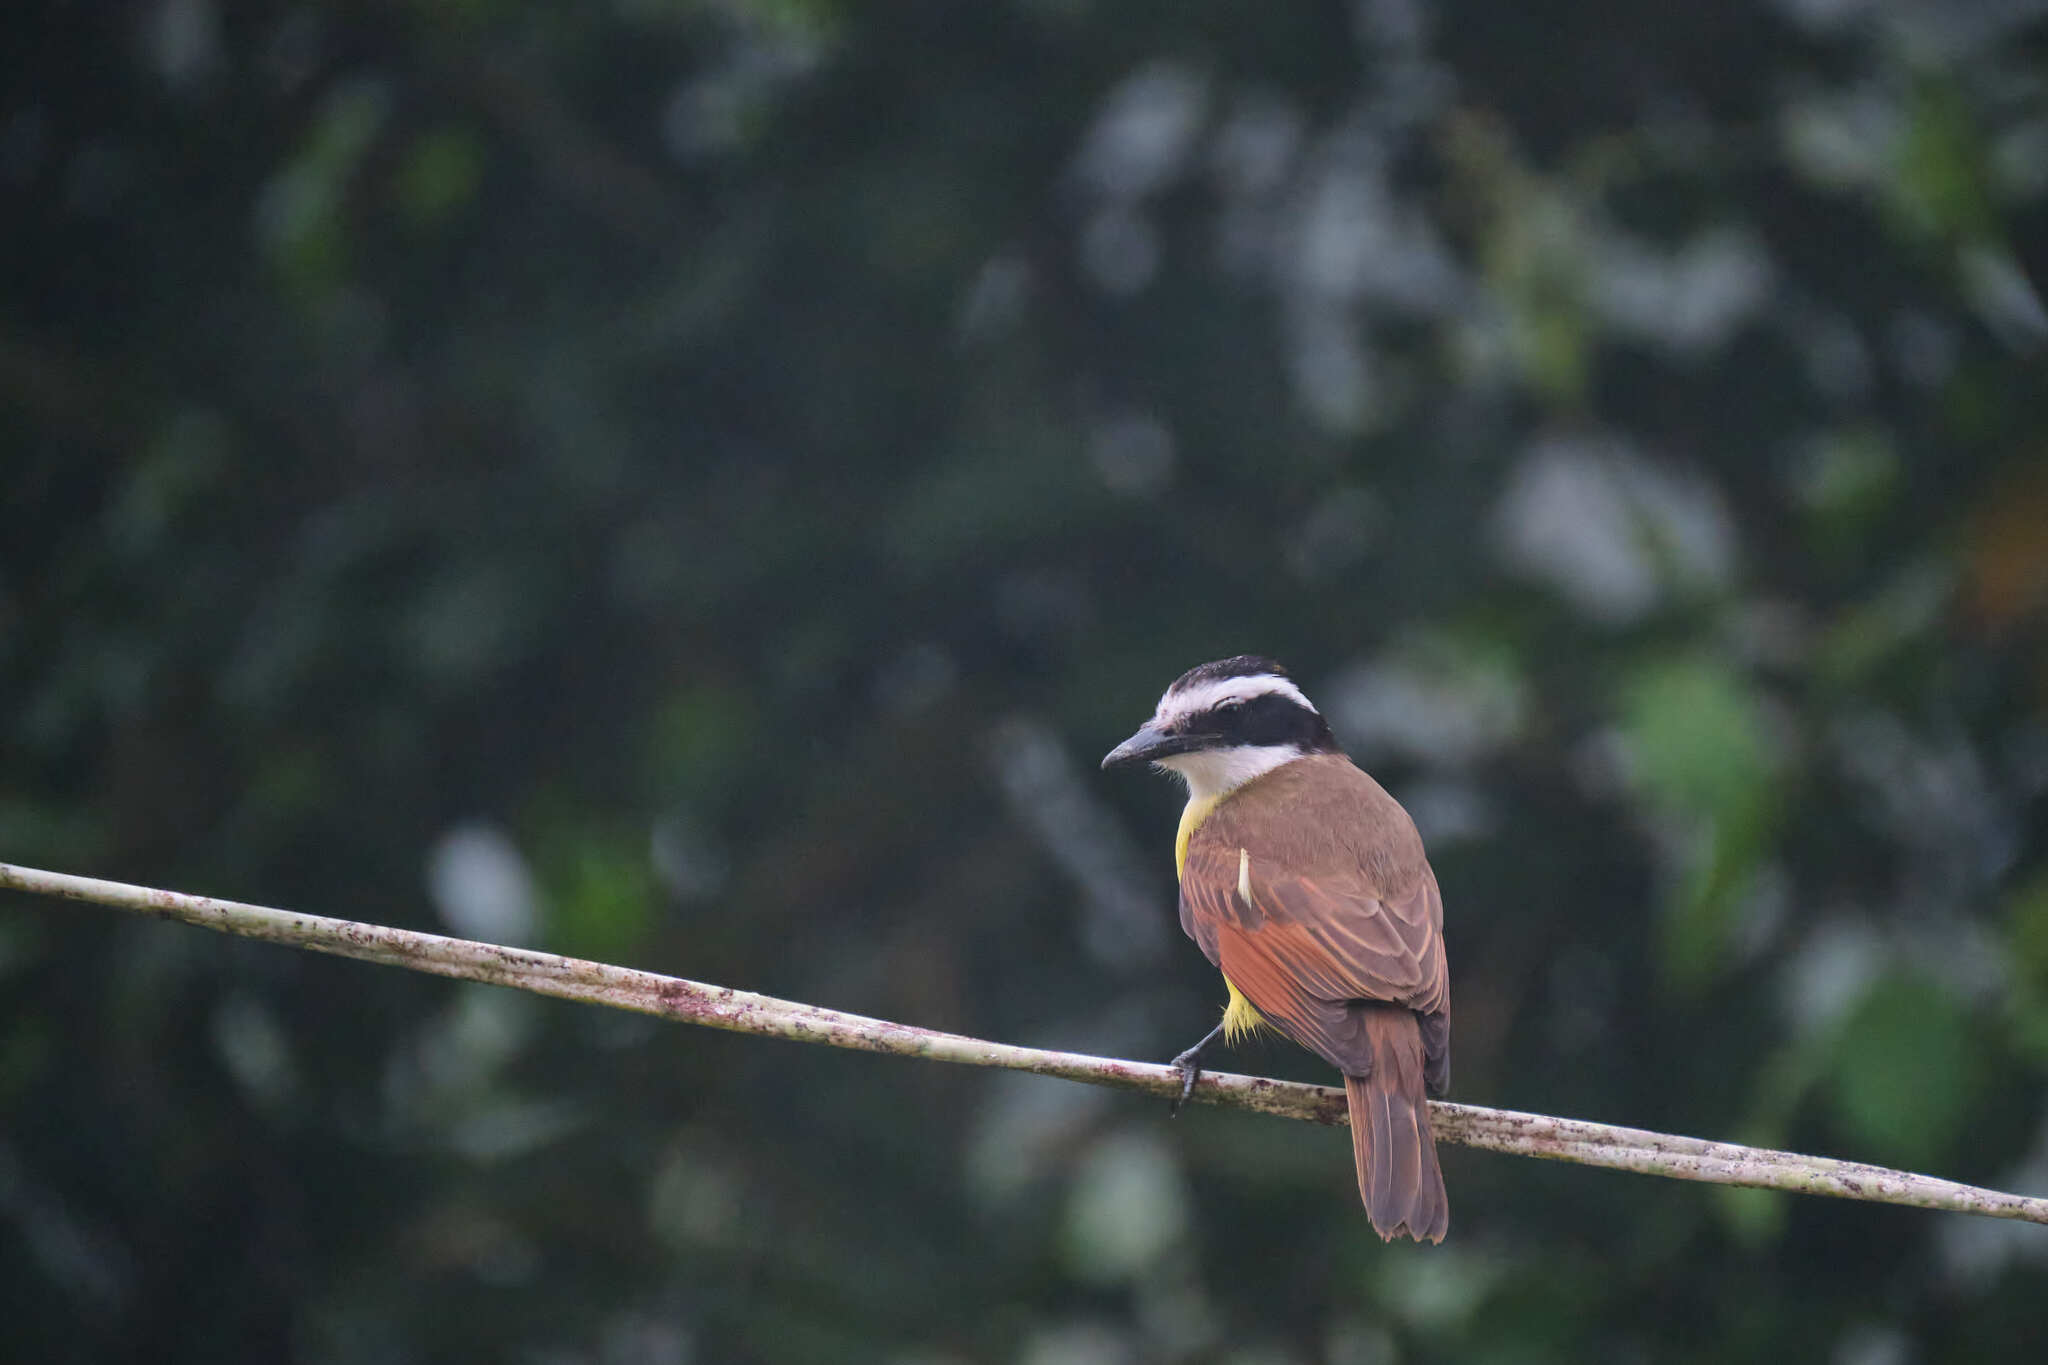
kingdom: Animalia
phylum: Chordata
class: Aves
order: Passeriformes
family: Tyrannidae
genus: Pitangus
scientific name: Pitangus sulphuratus
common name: Great kiskadee
